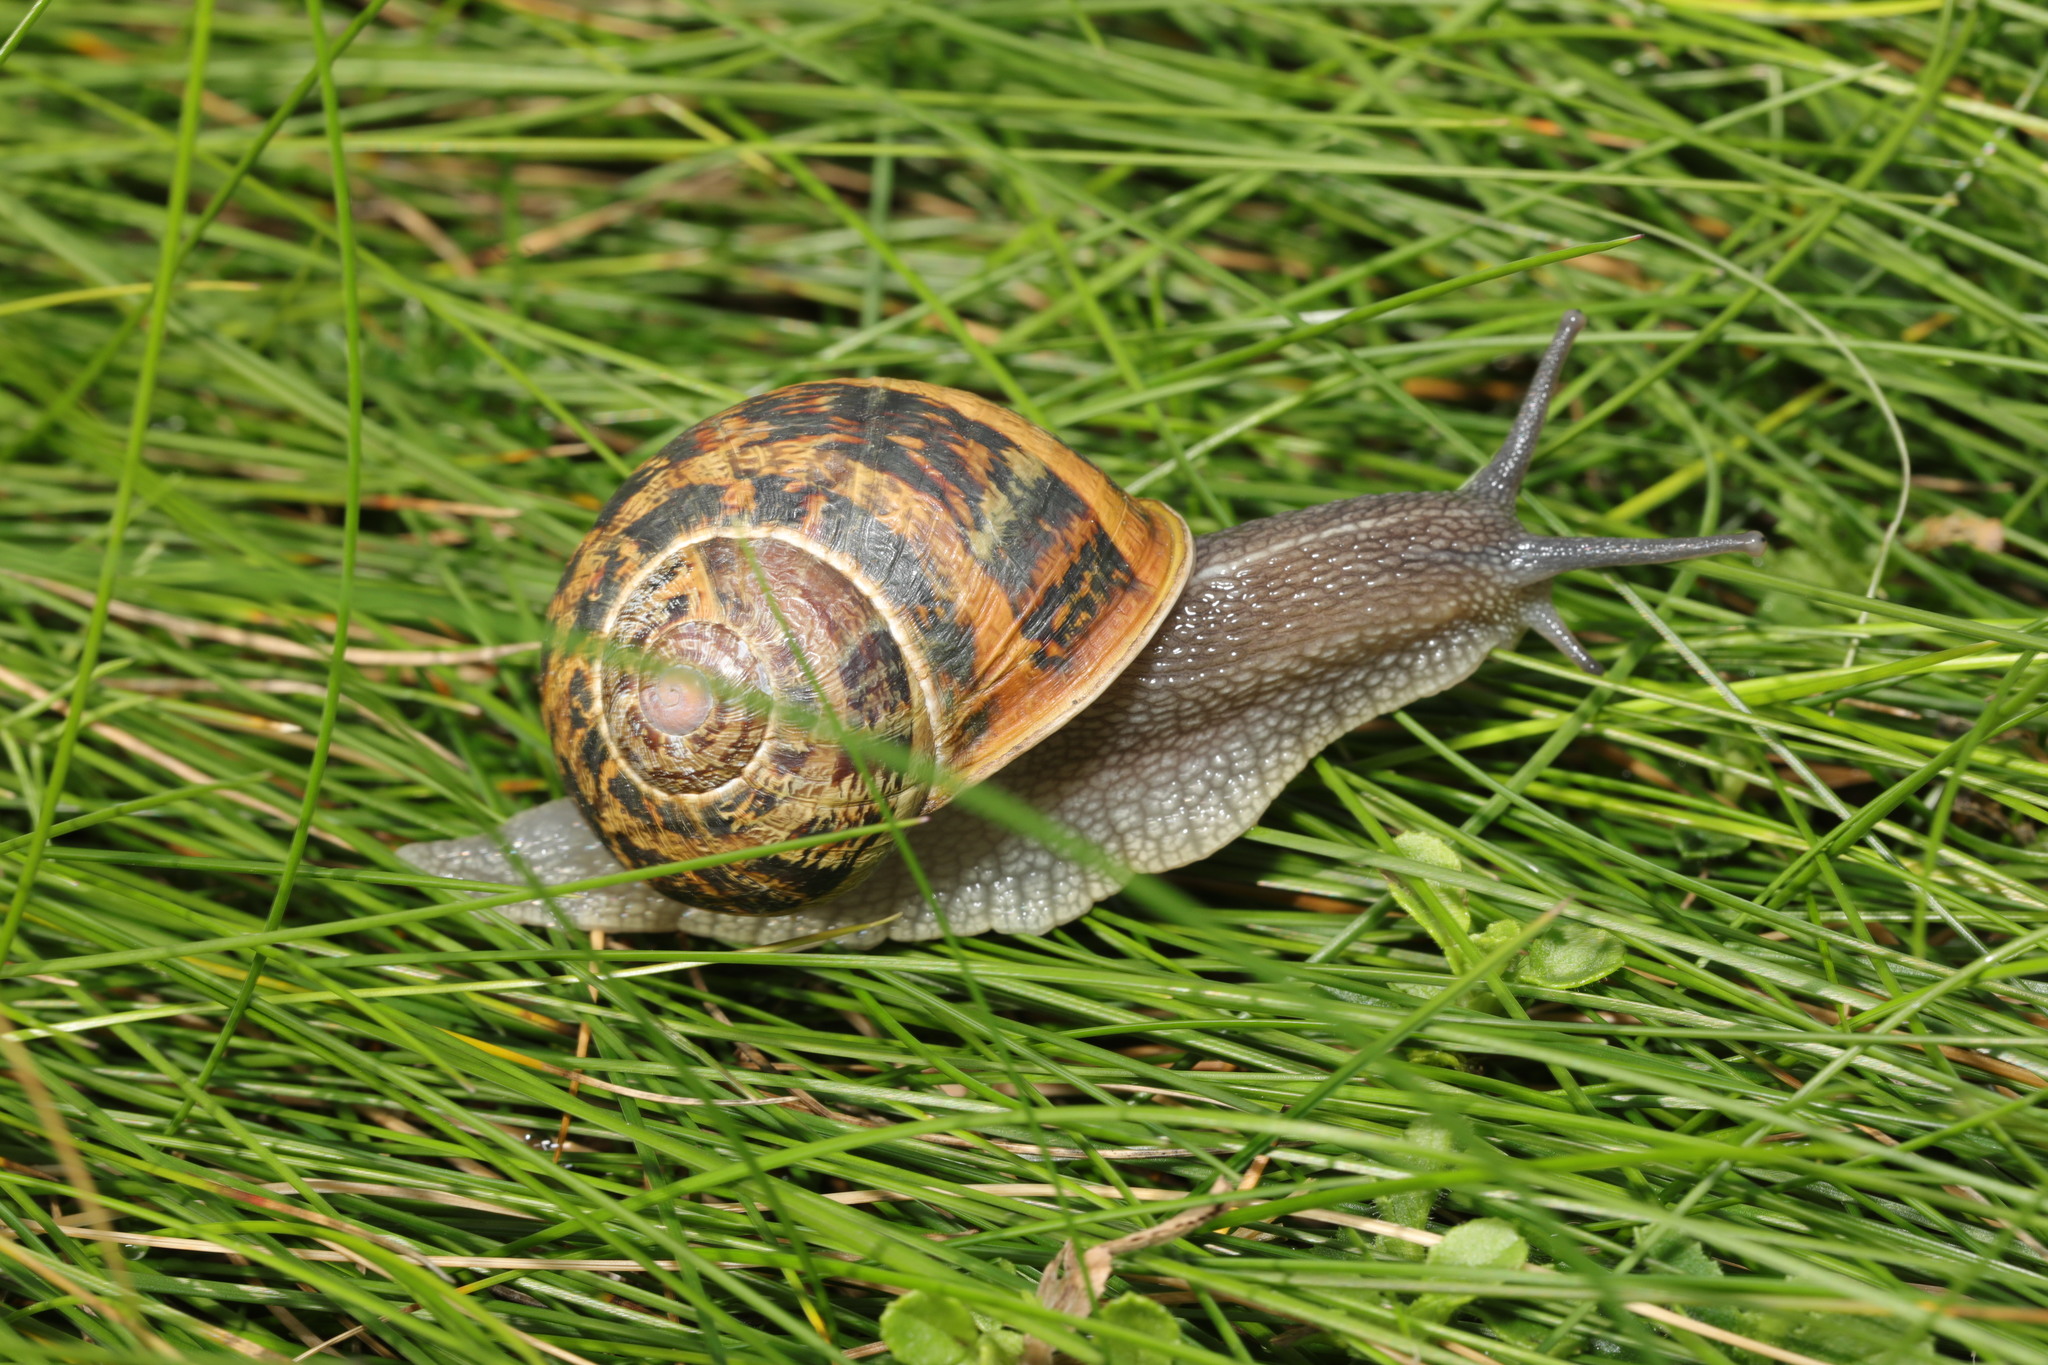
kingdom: Animalia
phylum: Mollusca
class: Gastropoda
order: Stylommatophora
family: Helicidae
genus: Cornu
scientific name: Cornu aspersum
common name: Brown garden snail
